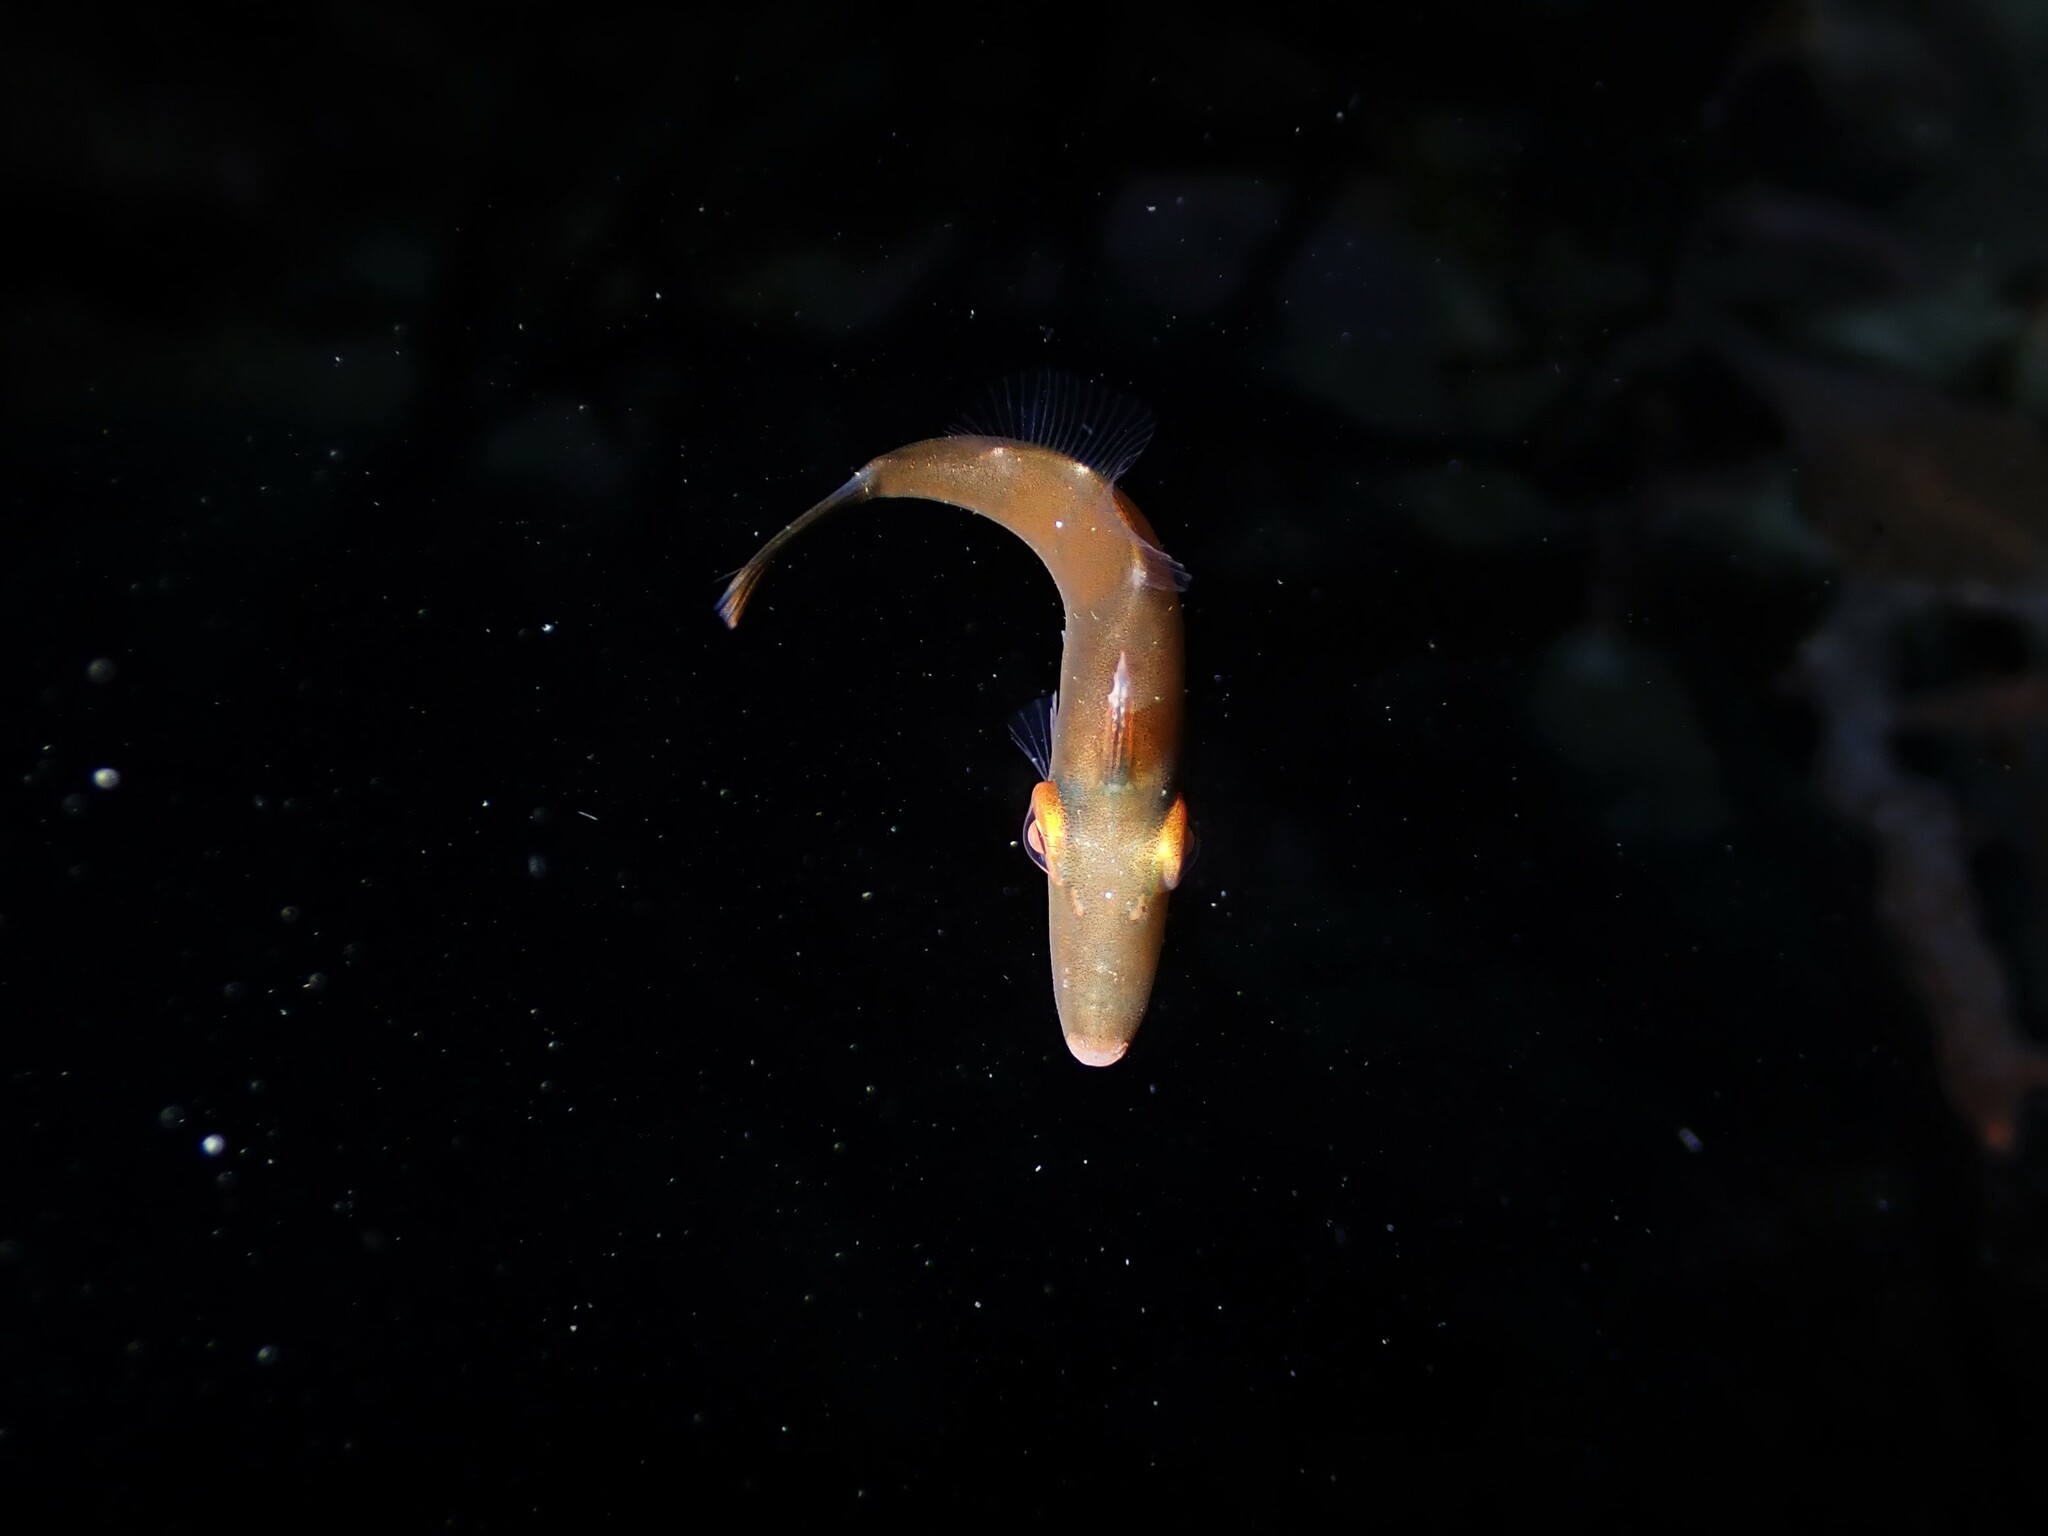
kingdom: Animalia
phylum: Chordata
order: Tetraodontiformes
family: Monacanthidae
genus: Meuschenia
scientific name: Meuschenia scaber
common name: Cosmopolitan leatherjacket
